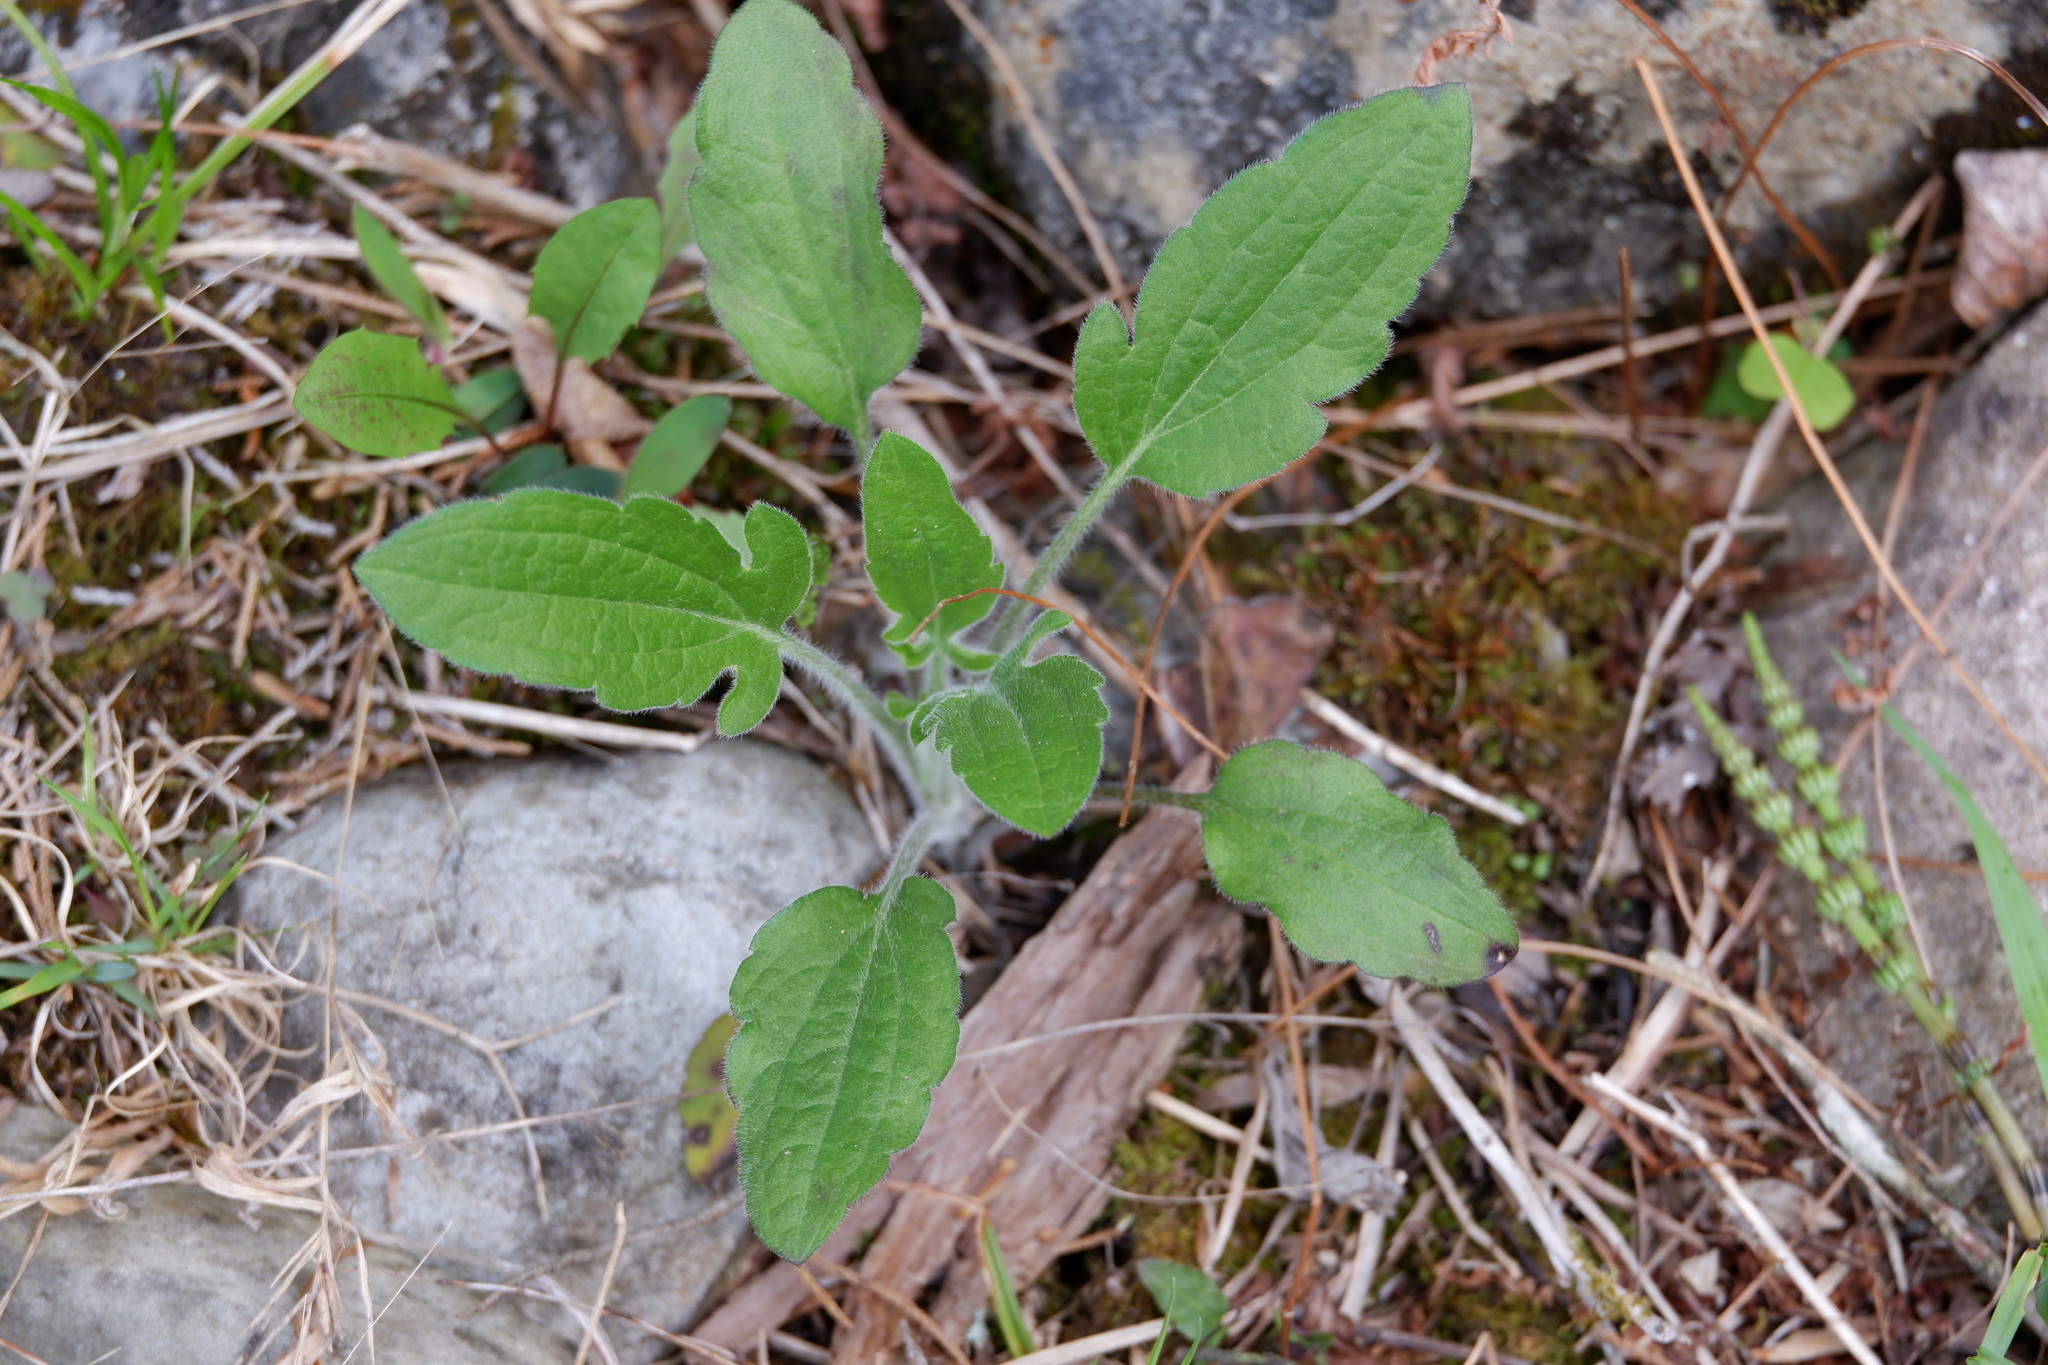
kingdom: Plantae
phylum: Tracheophyta
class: Magnoliopsida
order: Asterales
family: Asteraceae
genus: Rudbeckia
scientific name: Rudbeckia triloba
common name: Thin-leaved coneflower
